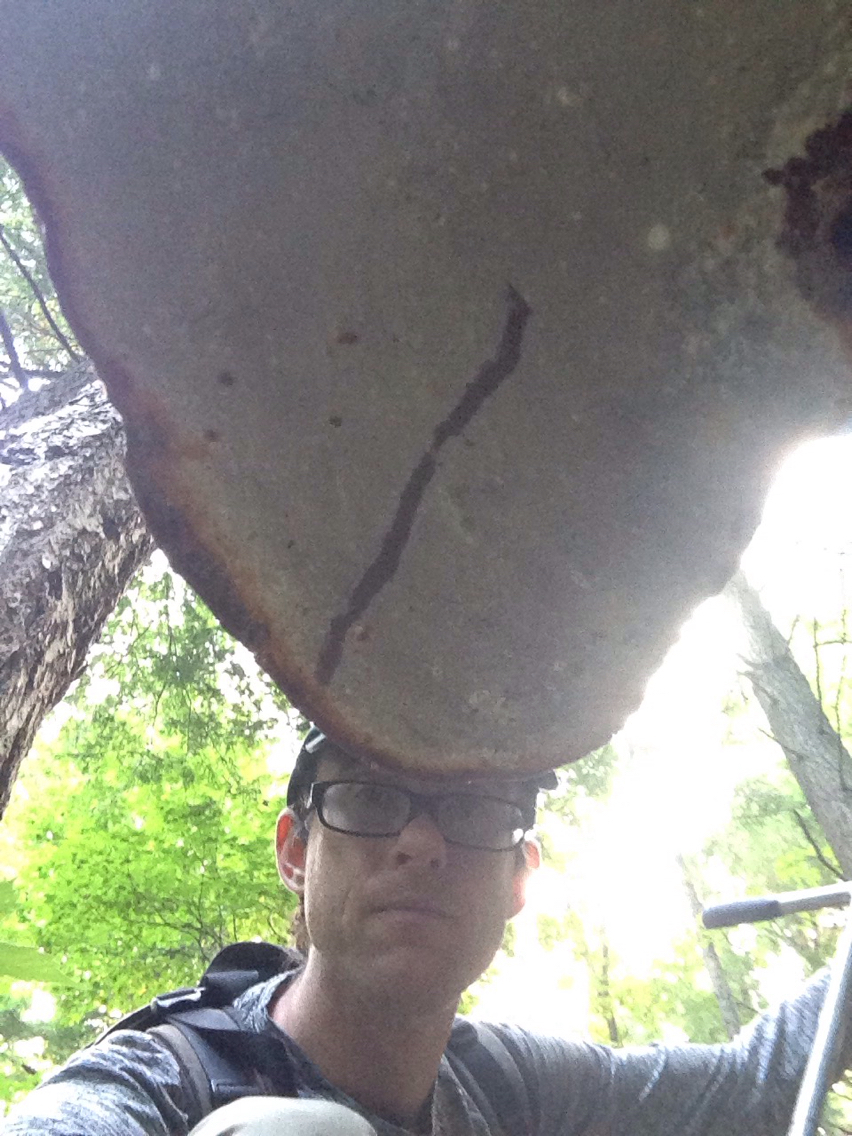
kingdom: Fungi
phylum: Basidiomycota
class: Agaricomycetes
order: Polyporales
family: Polyporaceae
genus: Ganoderma
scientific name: Ganoderma tsugae
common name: Hemlock varnish shelf
